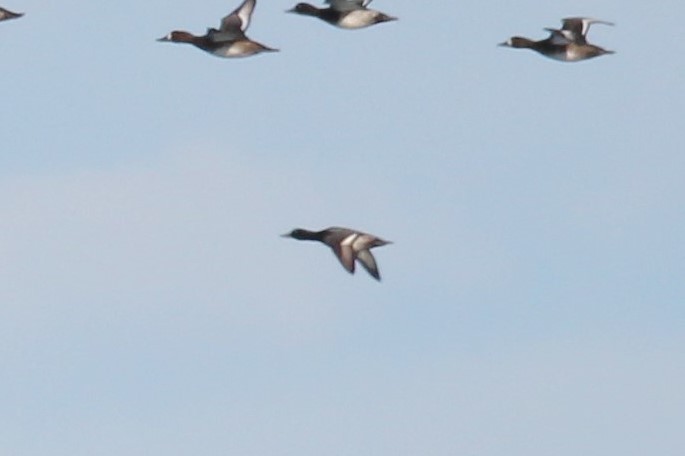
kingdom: Animalia
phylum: Chordata
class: Aves
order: Anseriformes
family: Anatidae
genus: Aythya
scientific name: Aythya affinis
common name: Lesser scaup
